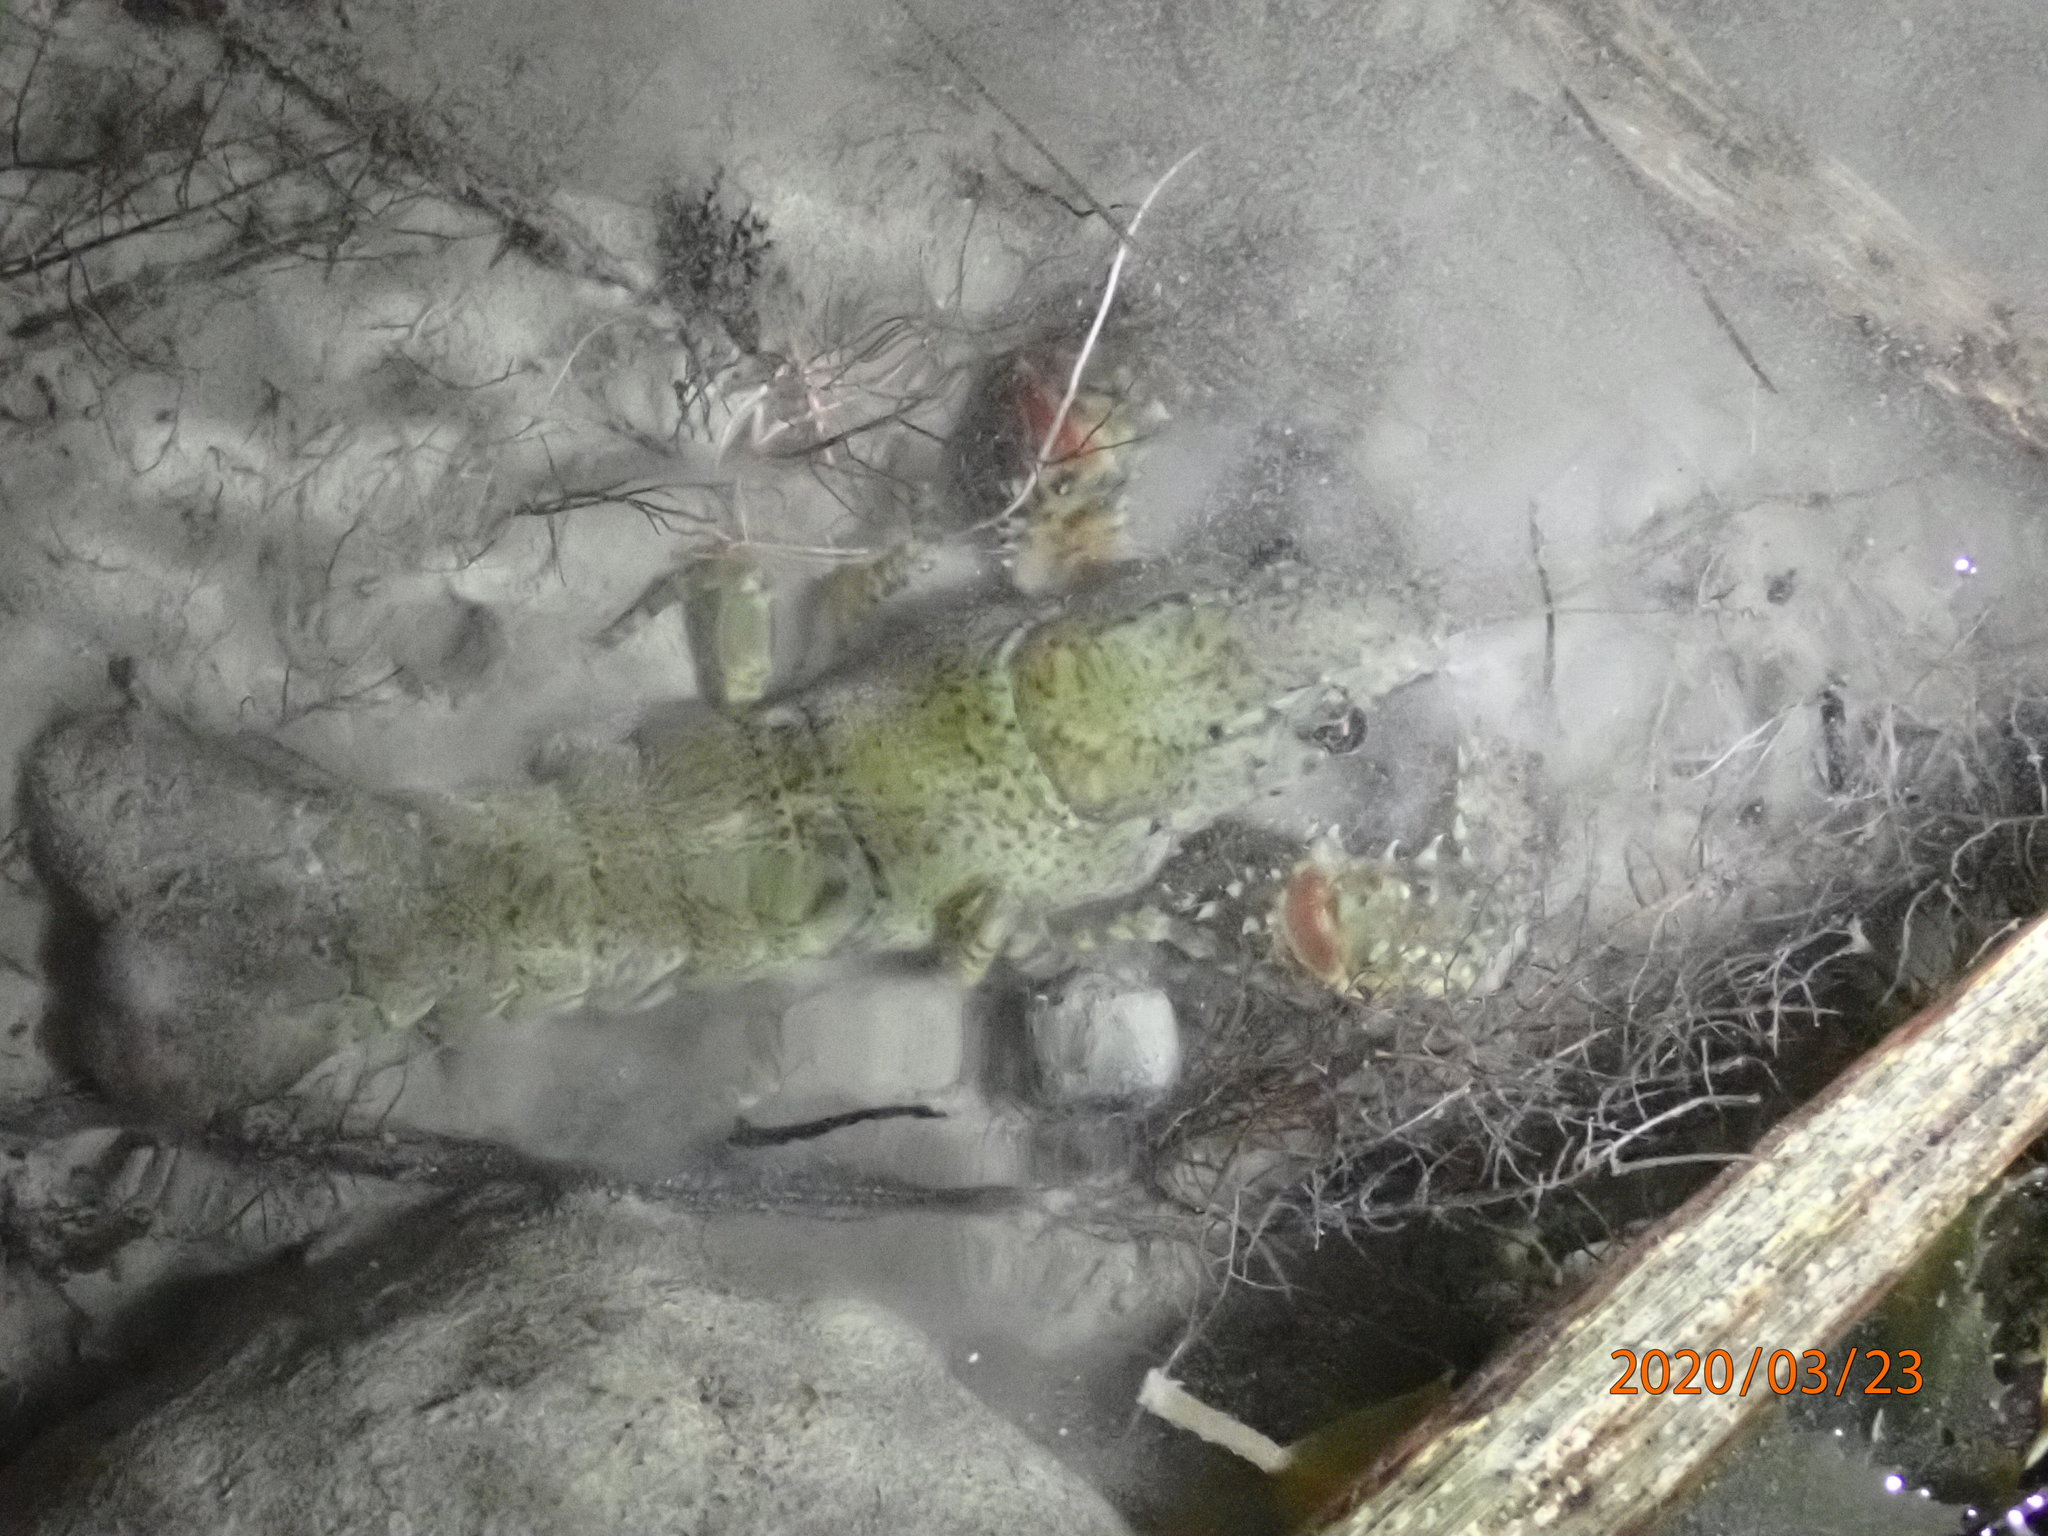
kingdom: Animalia
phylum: Arthropoda
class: Malacostraca
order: Decapoda
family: Parastacidae
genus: Paranephrops
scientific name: Paranephrops planifrons
